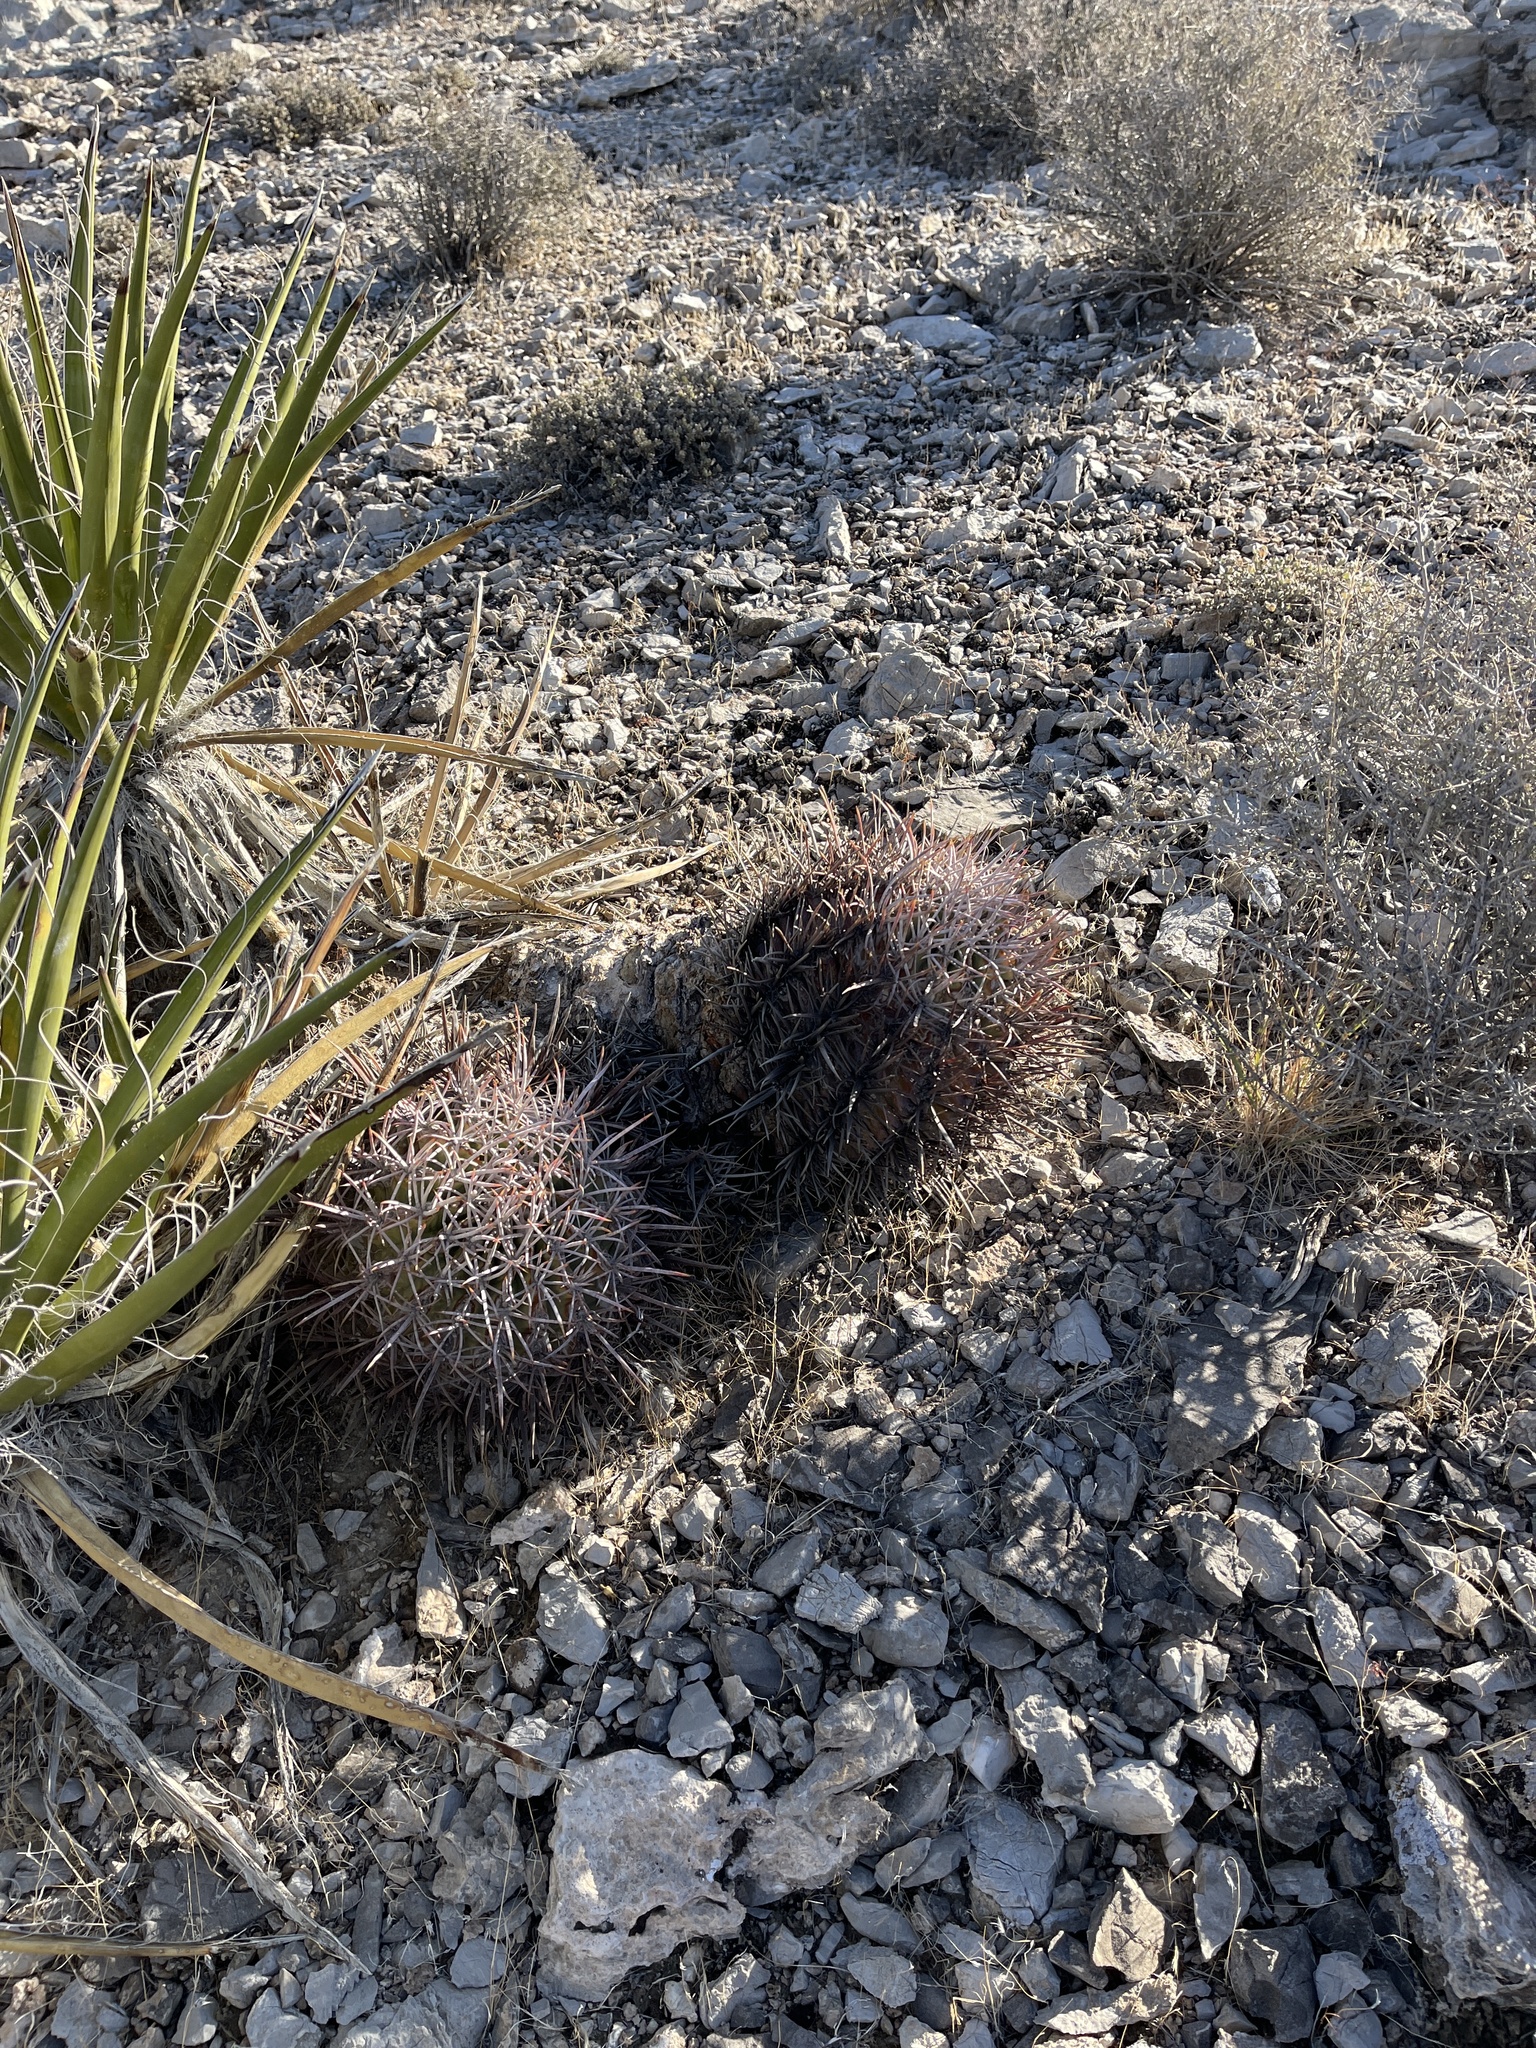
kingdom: Plantae
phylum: Tracheophyta
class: Magnoliopsida
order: Caryophyllales
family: Cactaceae
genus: Echinocactus
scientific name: Echinocactus polycephalus
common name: Cottontop cactus
